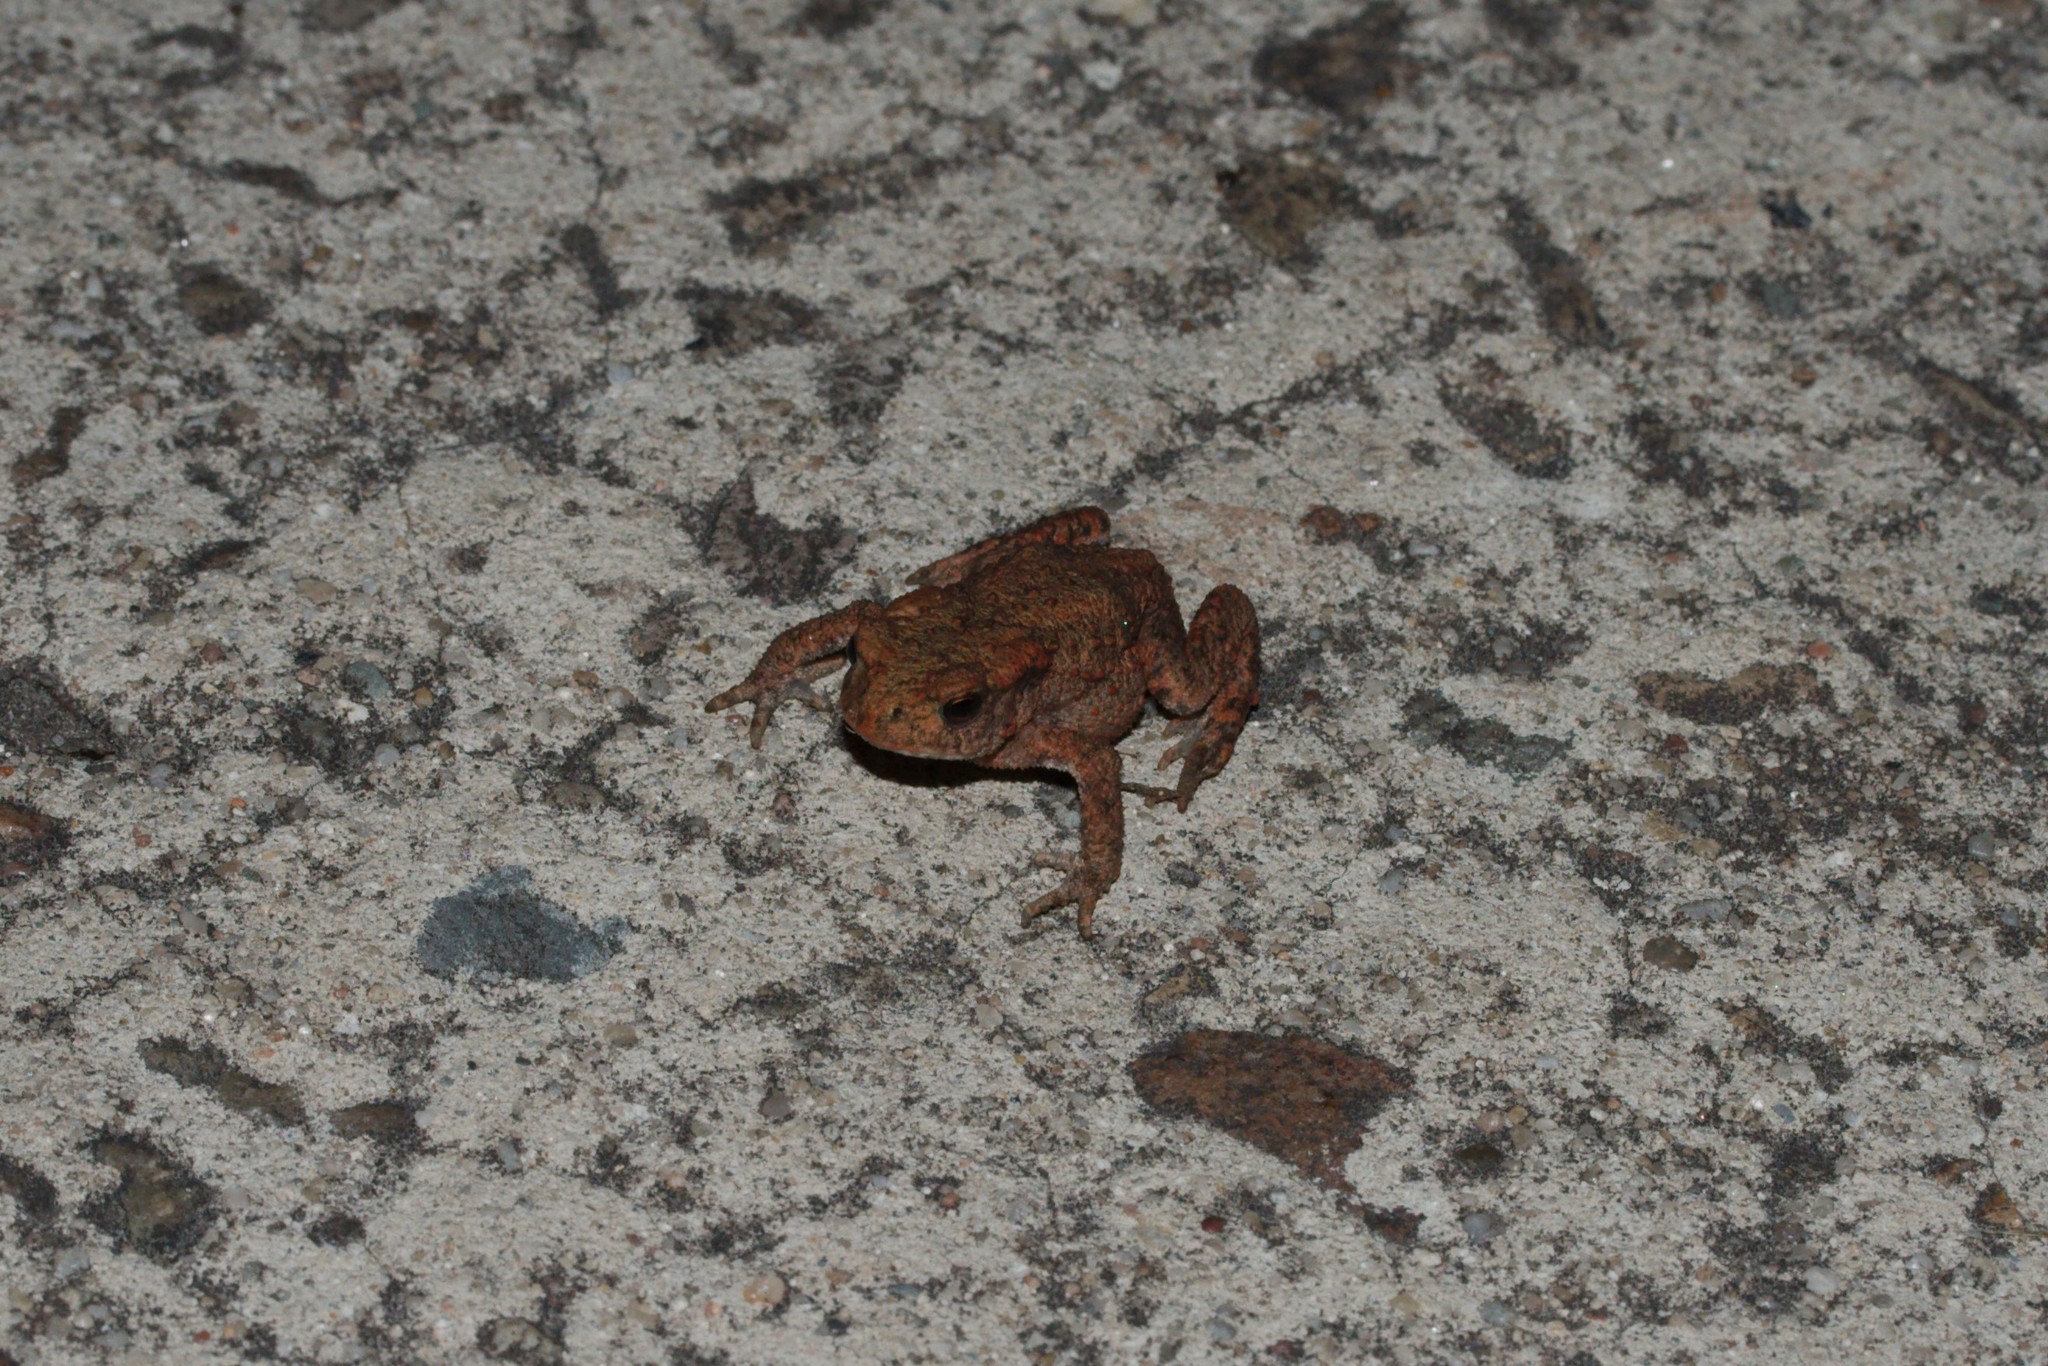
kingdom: Animalia
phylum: Chordata
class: Amphibia
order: Anura
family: Bufonidae
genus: Bufo
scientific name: Bufo bufo
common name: Common toad
